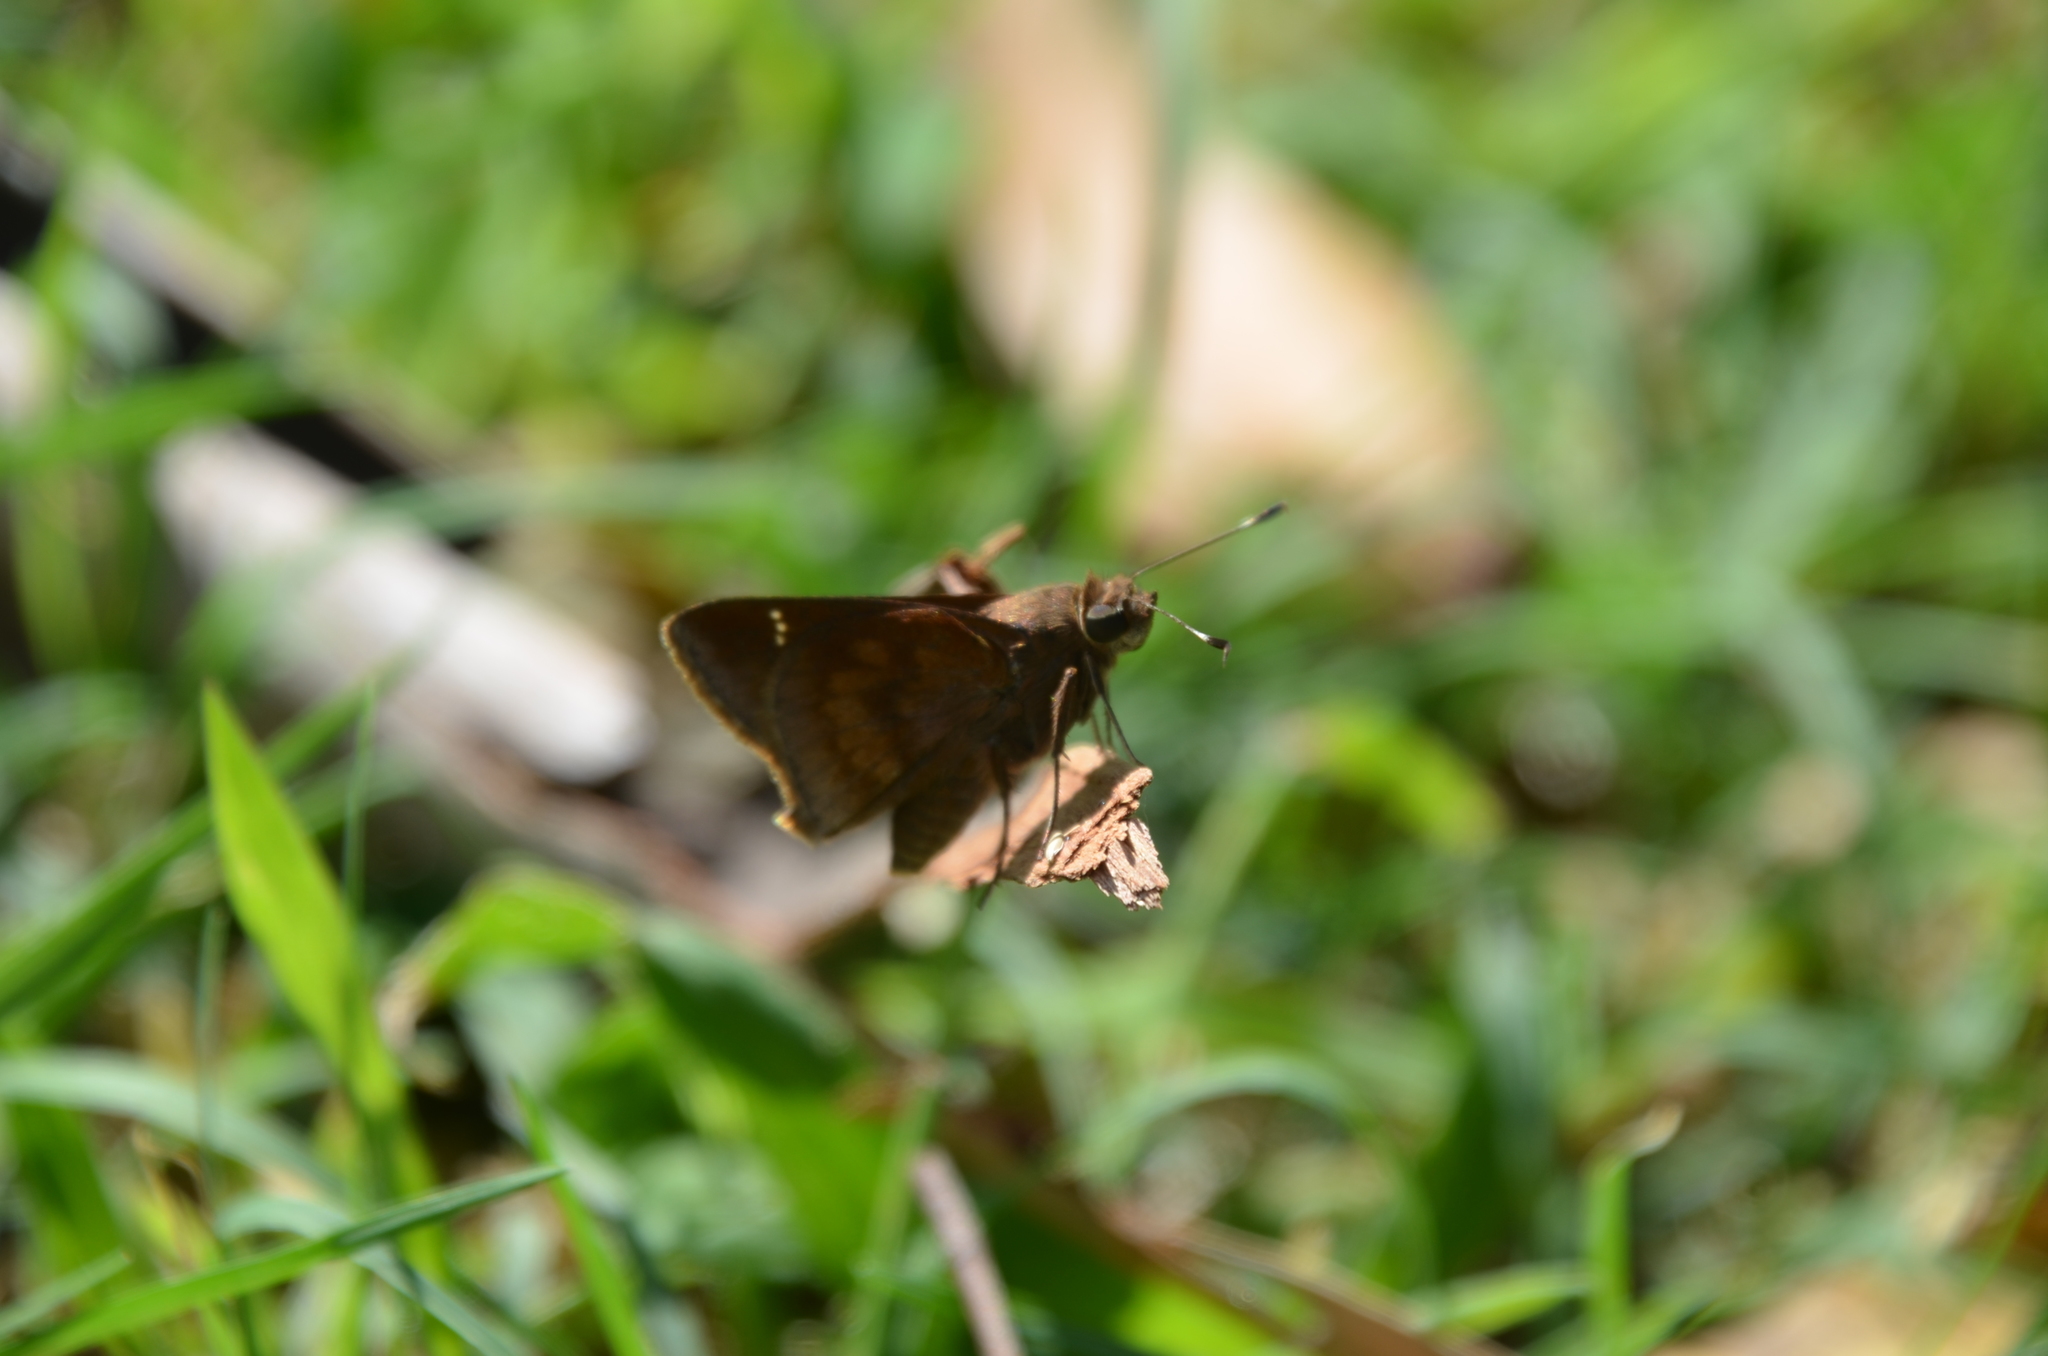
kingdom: Animalia
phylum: Arthropoda
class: Insecta
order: Lepidoptera
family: Hesperiidae
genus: Quinta
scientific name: Quinta cannae
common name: Canna skipper
